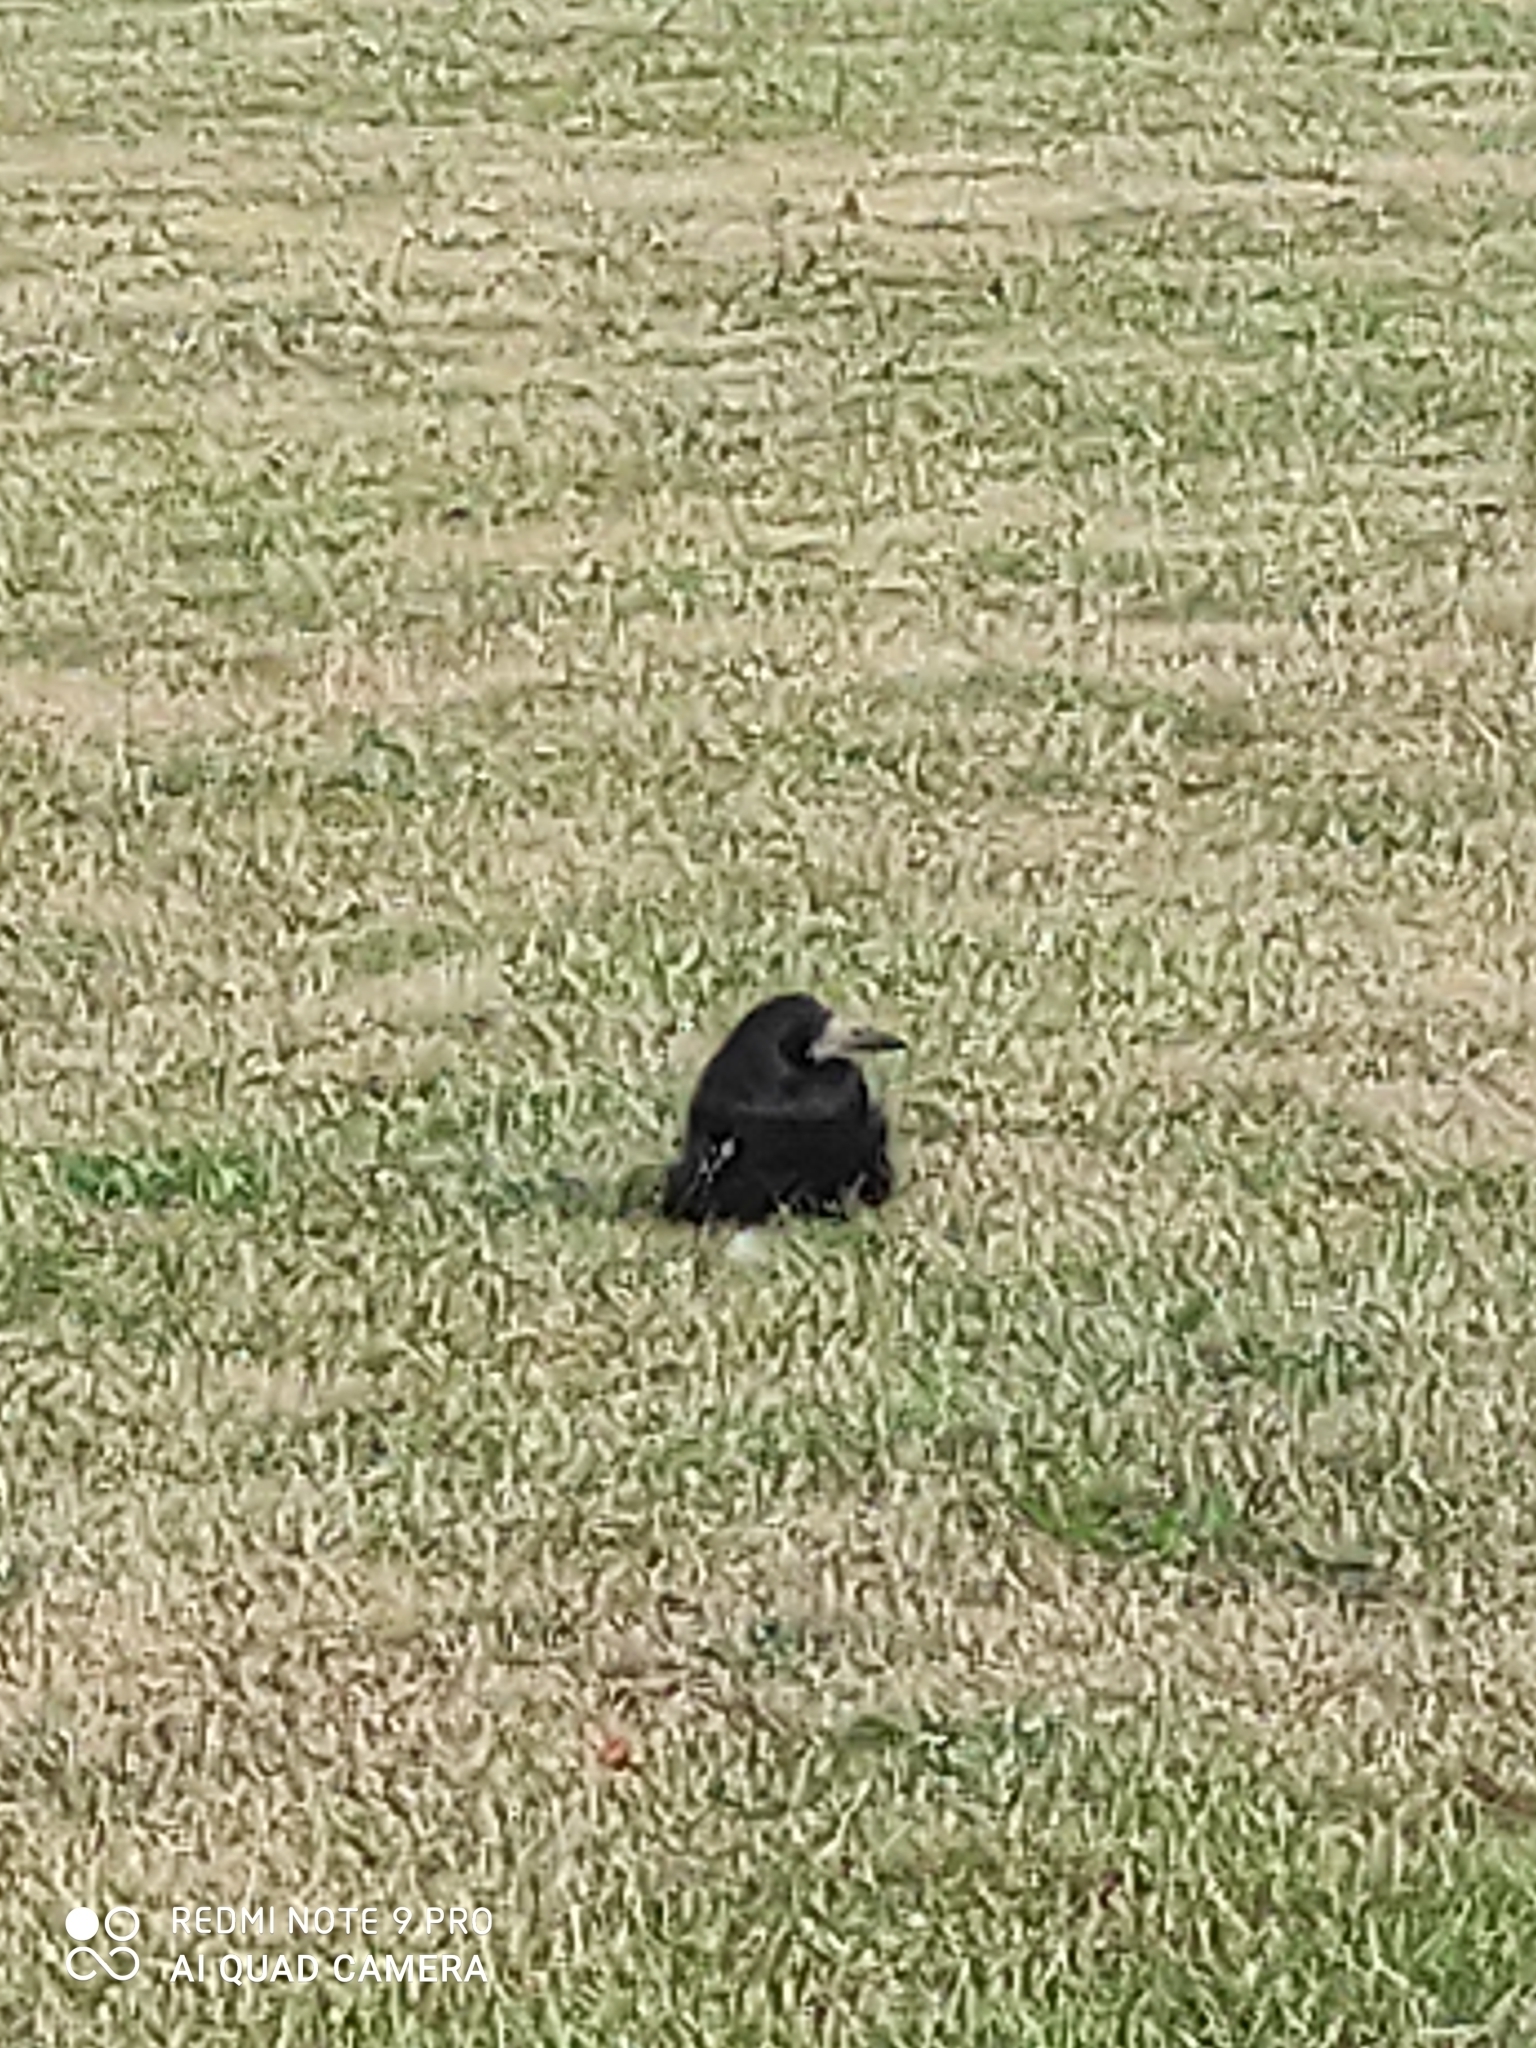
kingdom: Animalia
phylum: Chordata
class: Aves
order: Passeriformes
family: Corvidae
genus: Corvus
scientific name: Corvus frugilegus
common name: Rook
